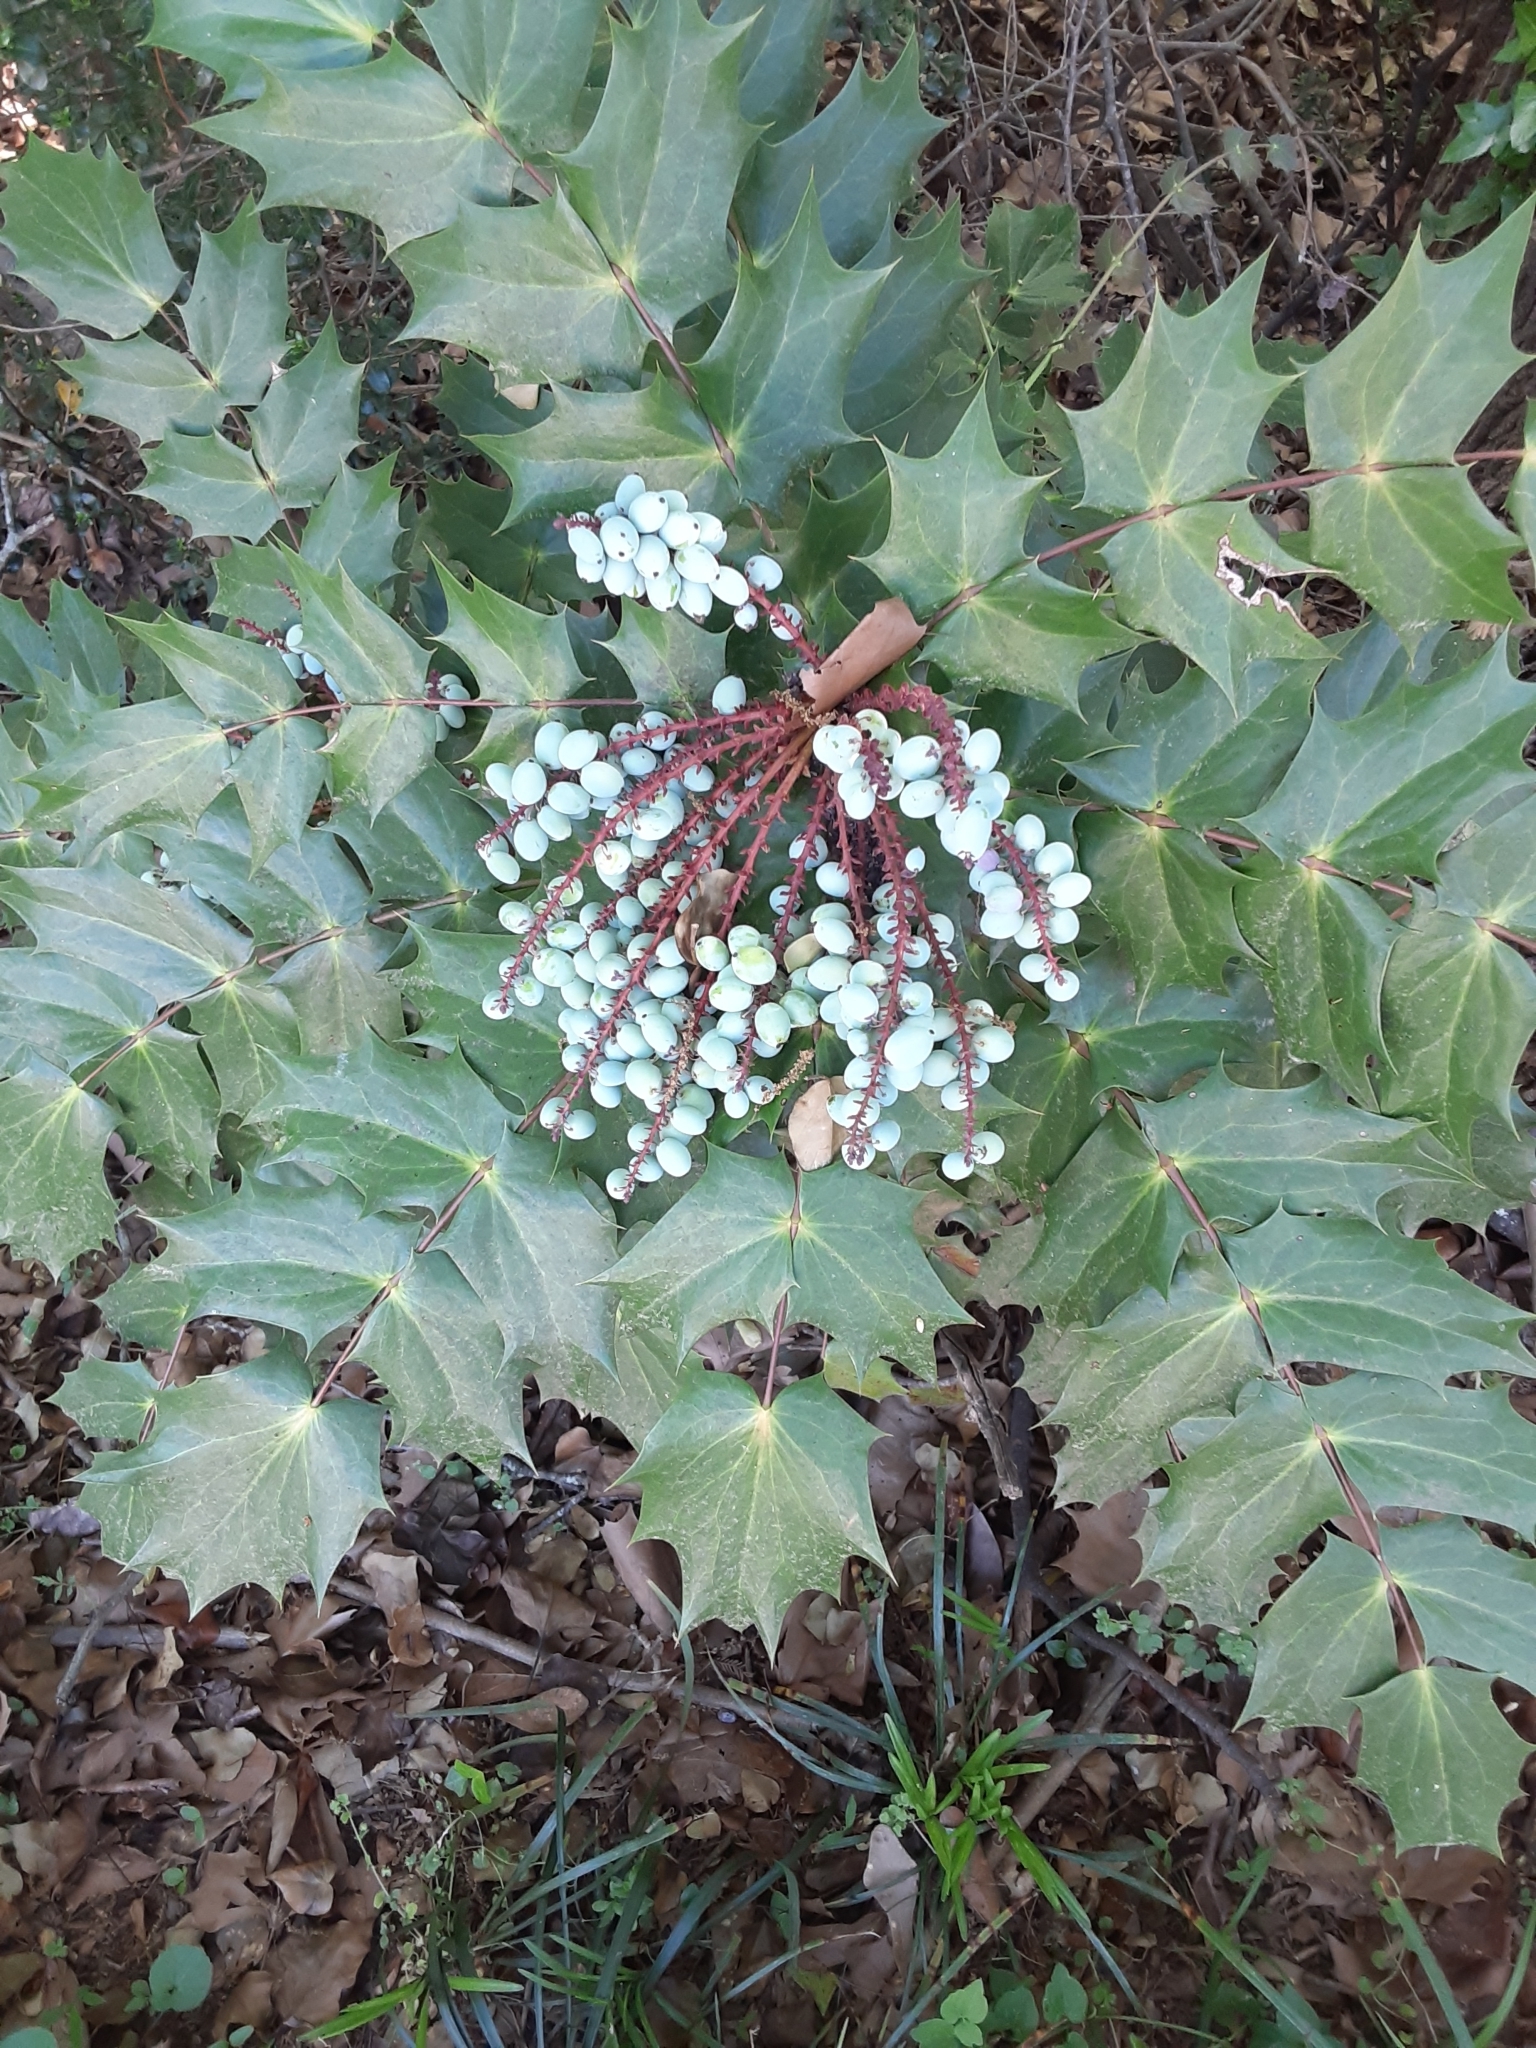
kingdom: Plantae
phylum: Tracheophyta
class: Magnoliopsida
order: Ranunculales
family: Berberidaceae
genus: Mahonia
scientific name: Mahonia bealei
